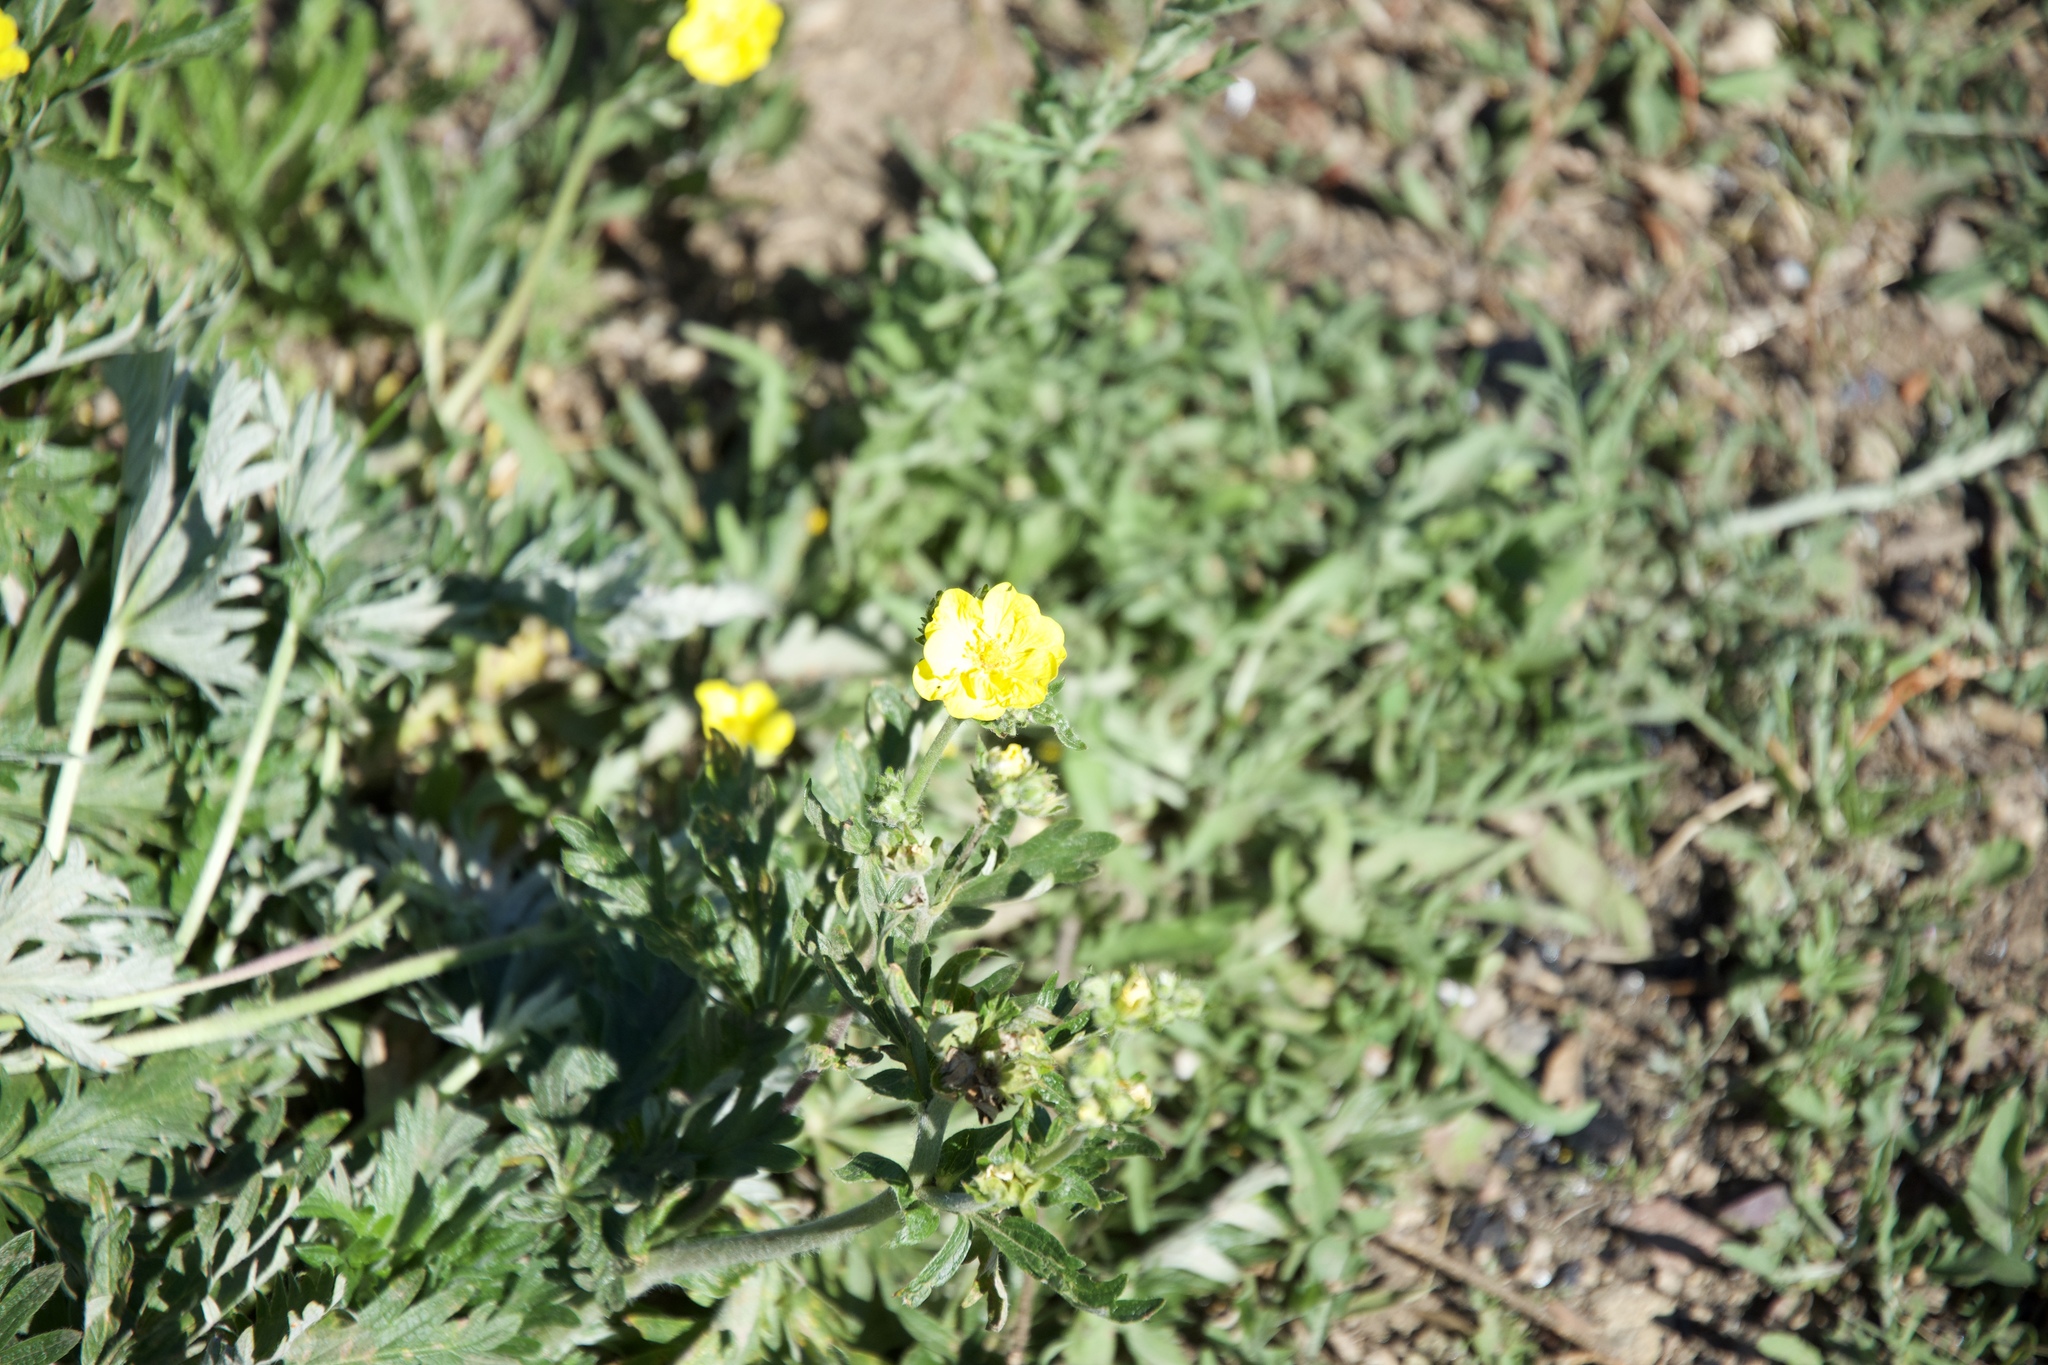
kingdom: Plantae
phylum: Tracheophyta
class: Magnoliopsida
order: Rosales
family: Rosaceae
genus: Potentilla
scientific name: Potentilla gracilis
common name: Graceful cinquefoil
